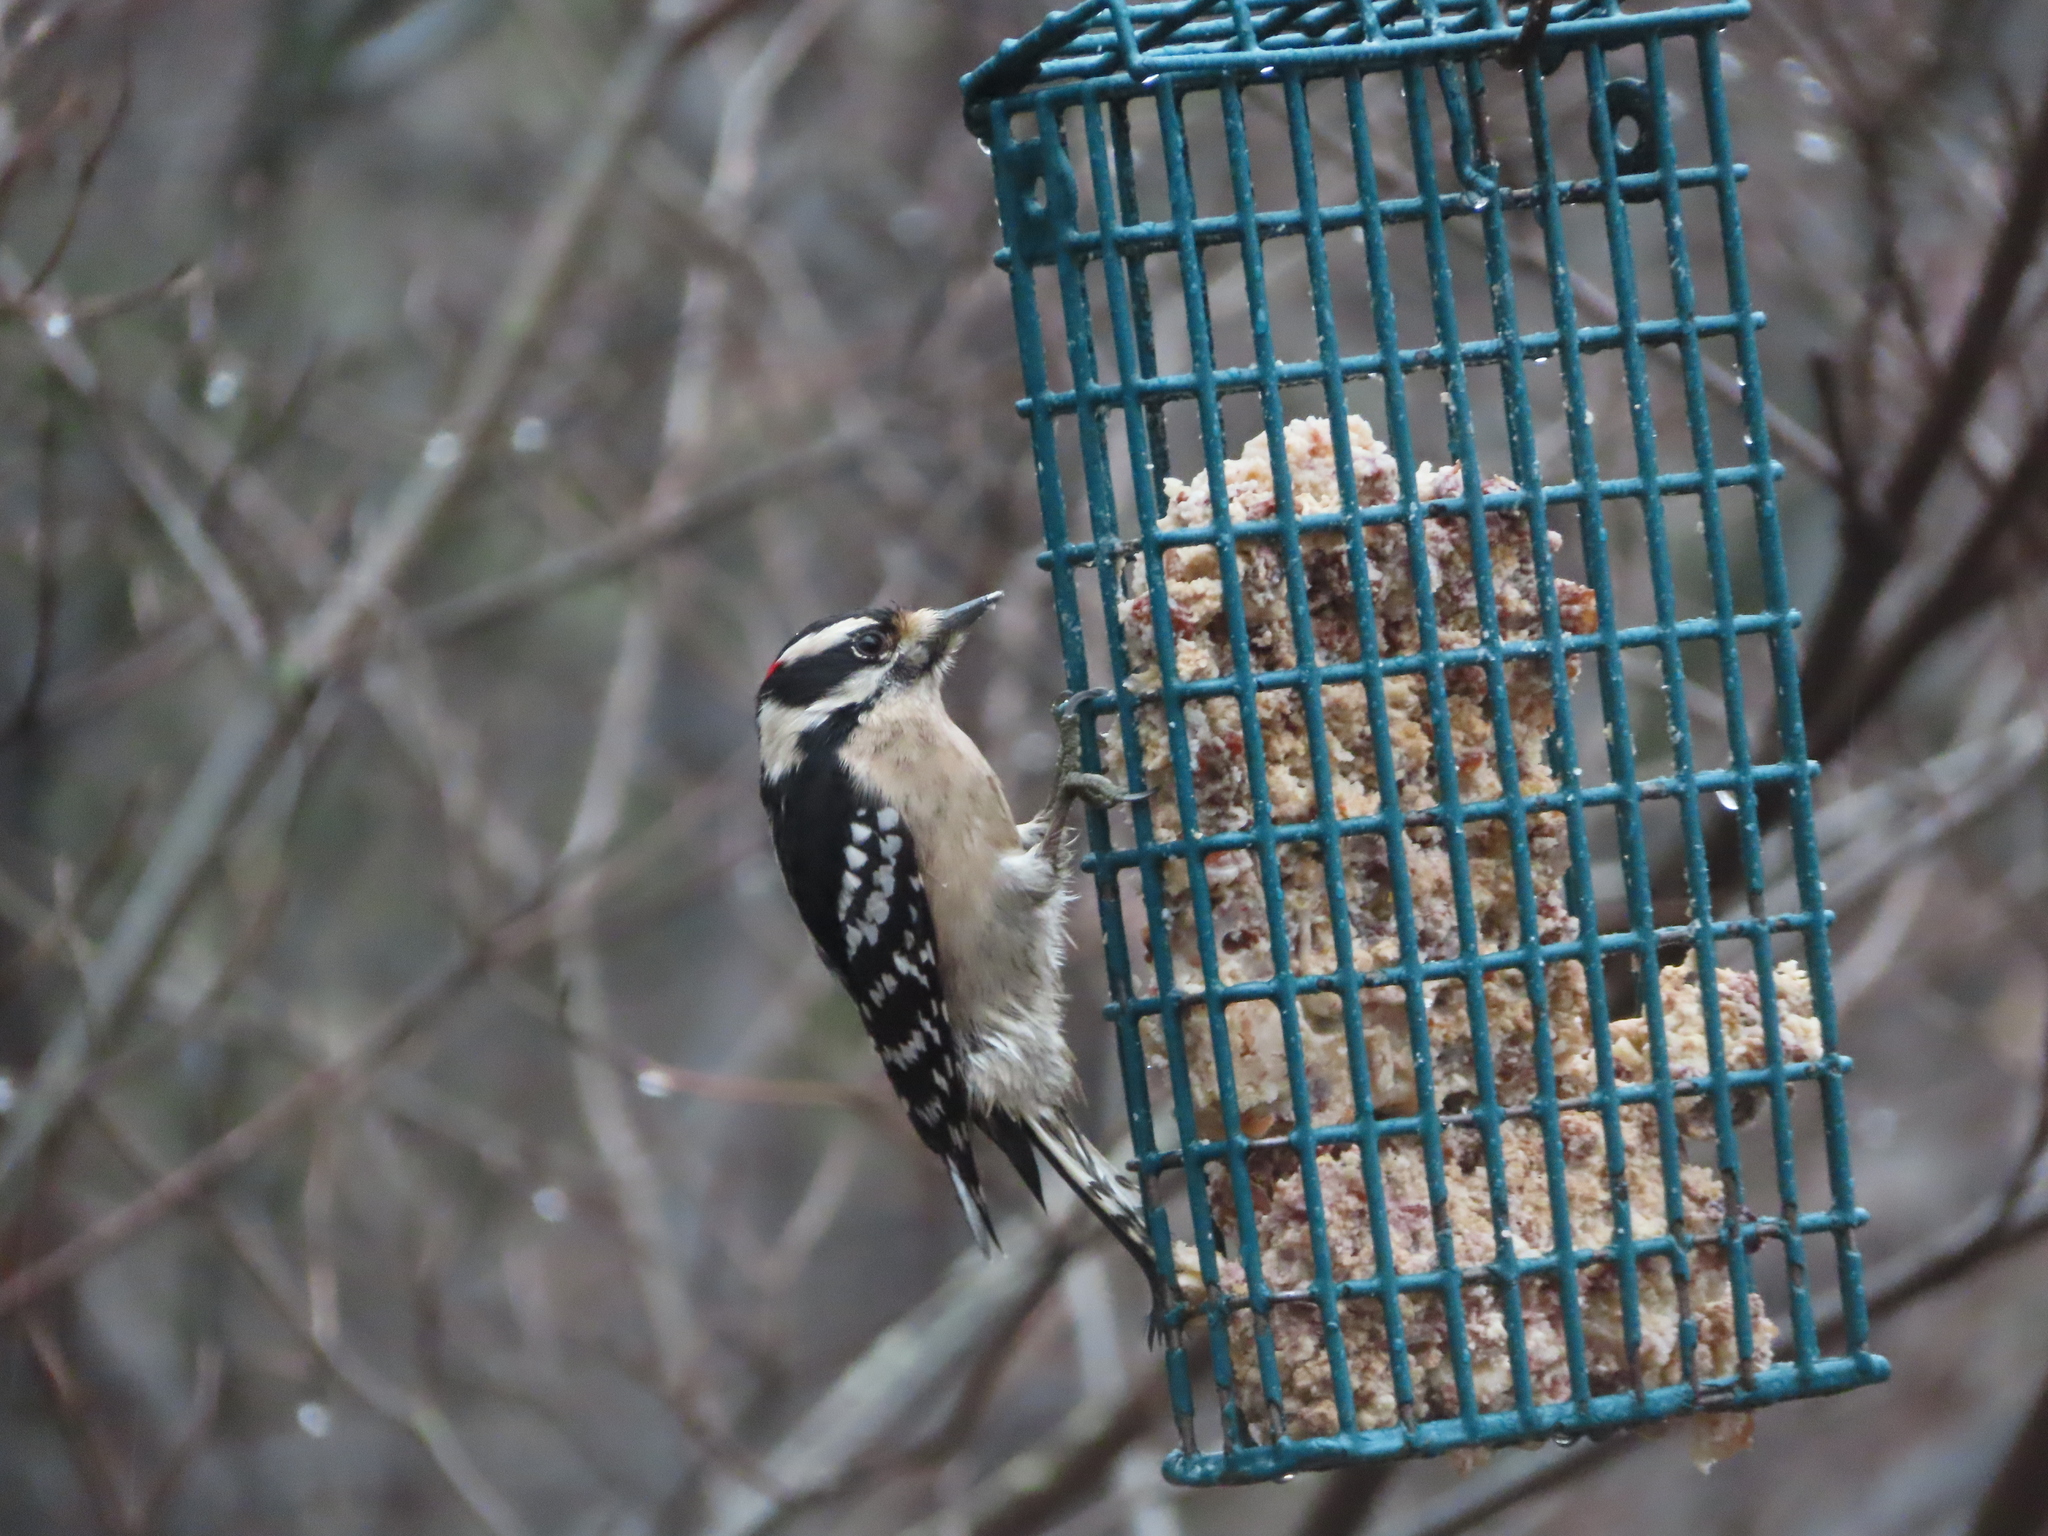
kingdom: Animalia
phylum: Chordata
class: Aves
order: Piciformes
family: Picidae
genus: Dryobates
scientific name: Dryobates pubescens
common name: Downy woodpecker
